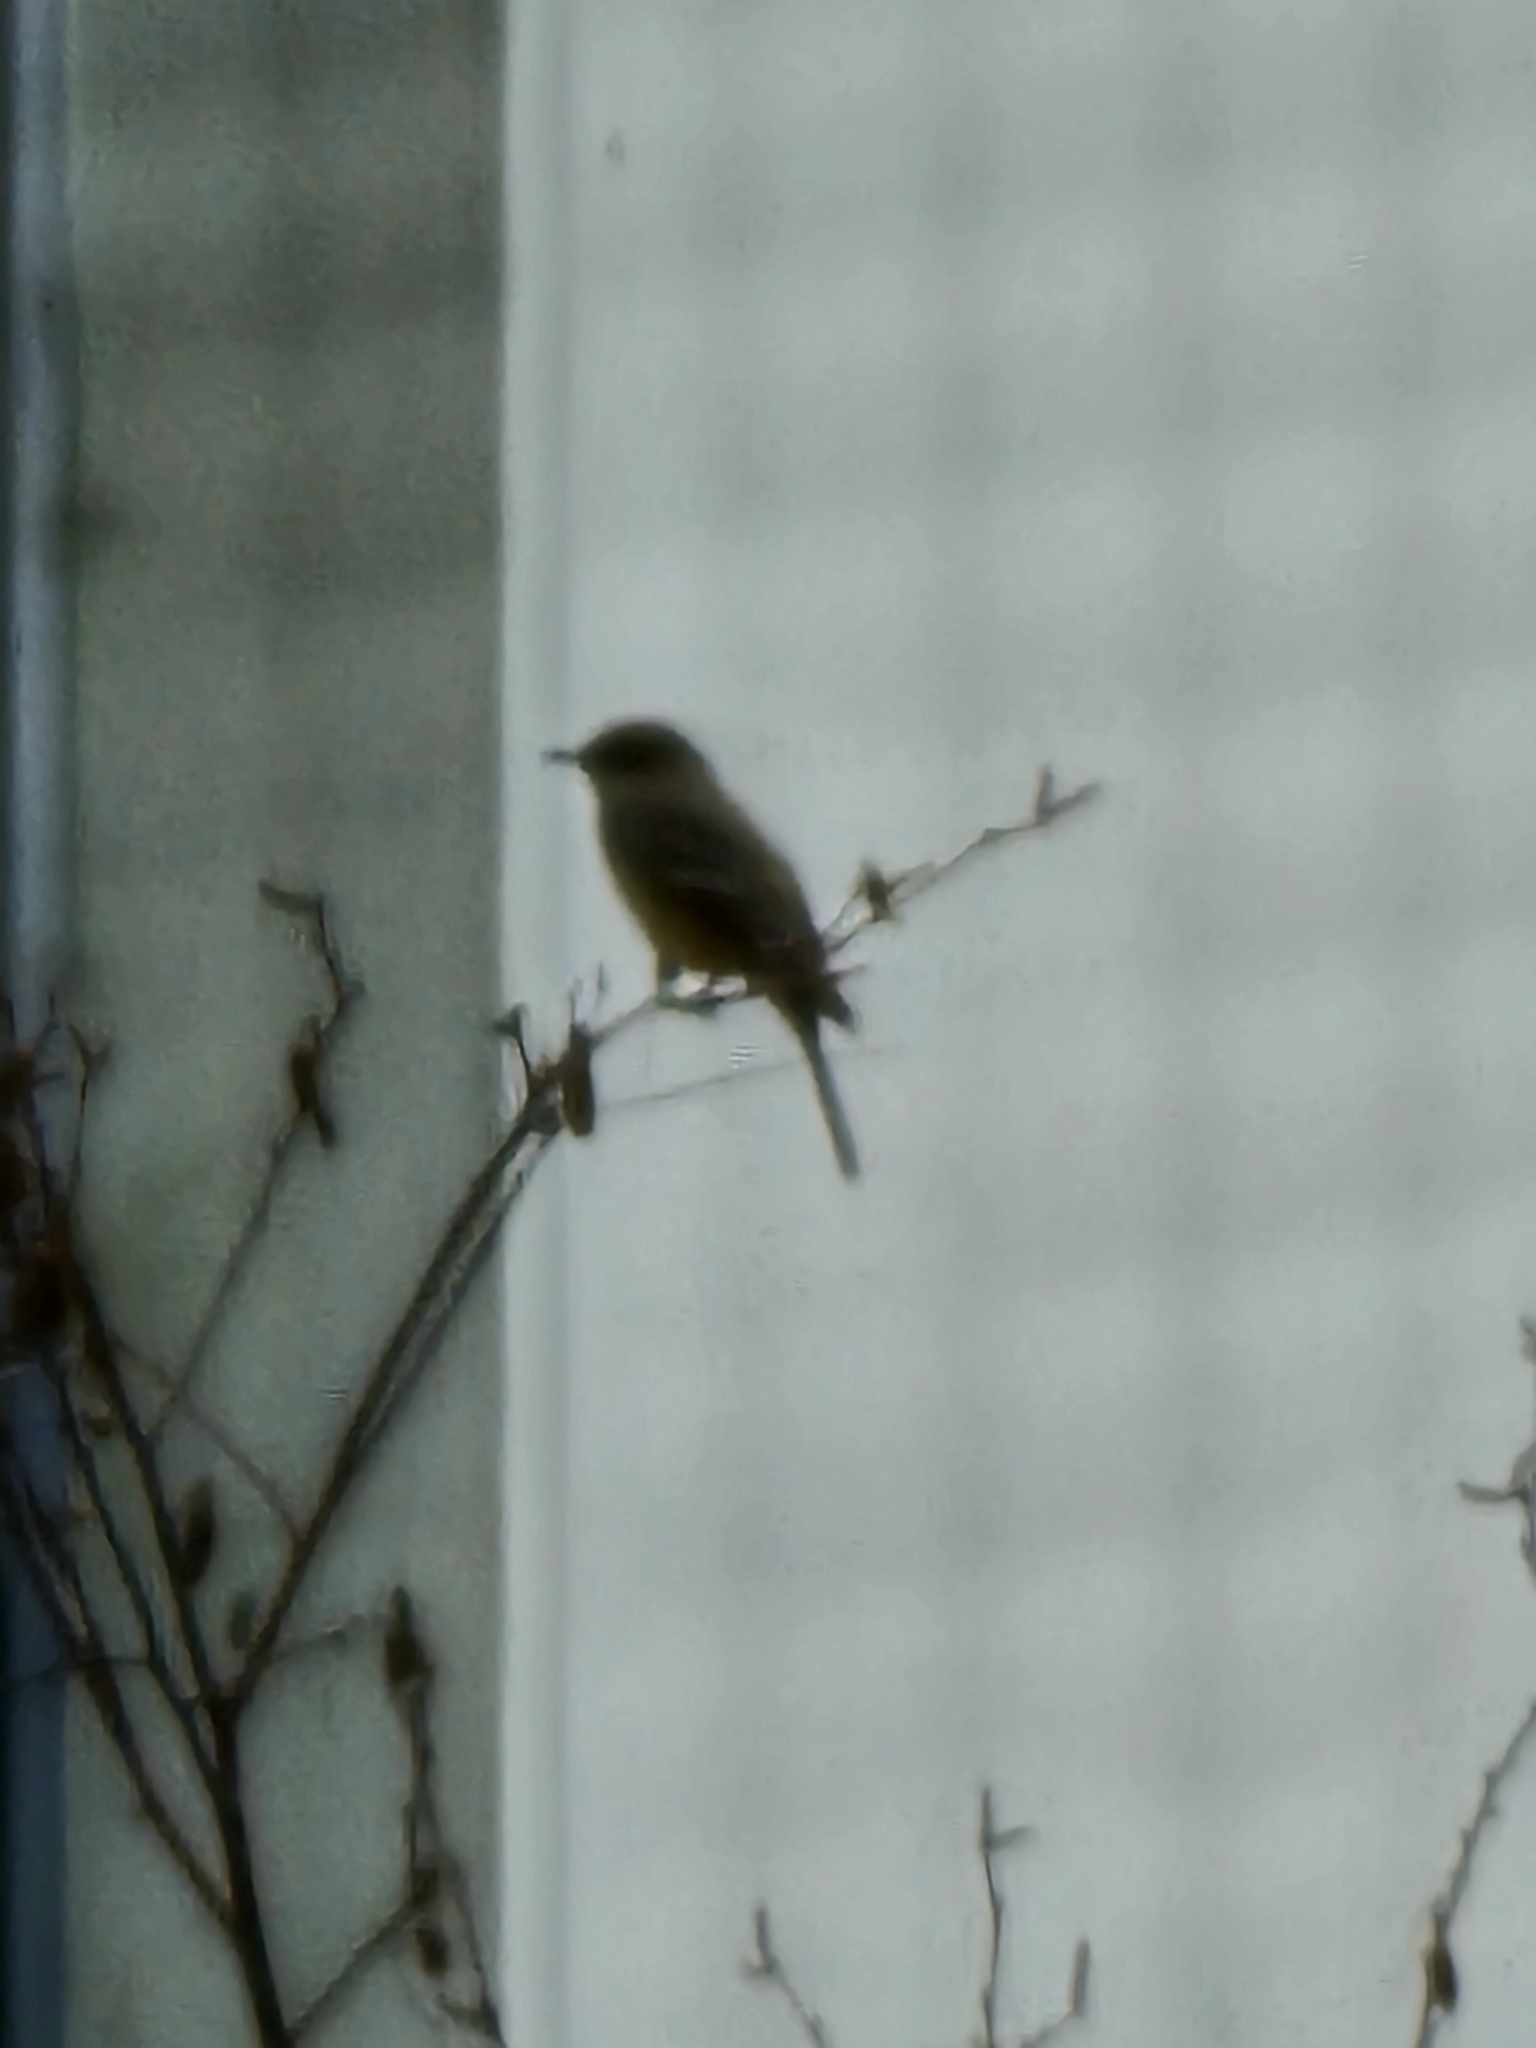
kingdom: Animalia
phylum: Chordata
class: Aves
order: Passeriformes
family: Tyrannidae
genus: Sayornis
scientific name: Sayornis saya
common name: Say's phoebe
